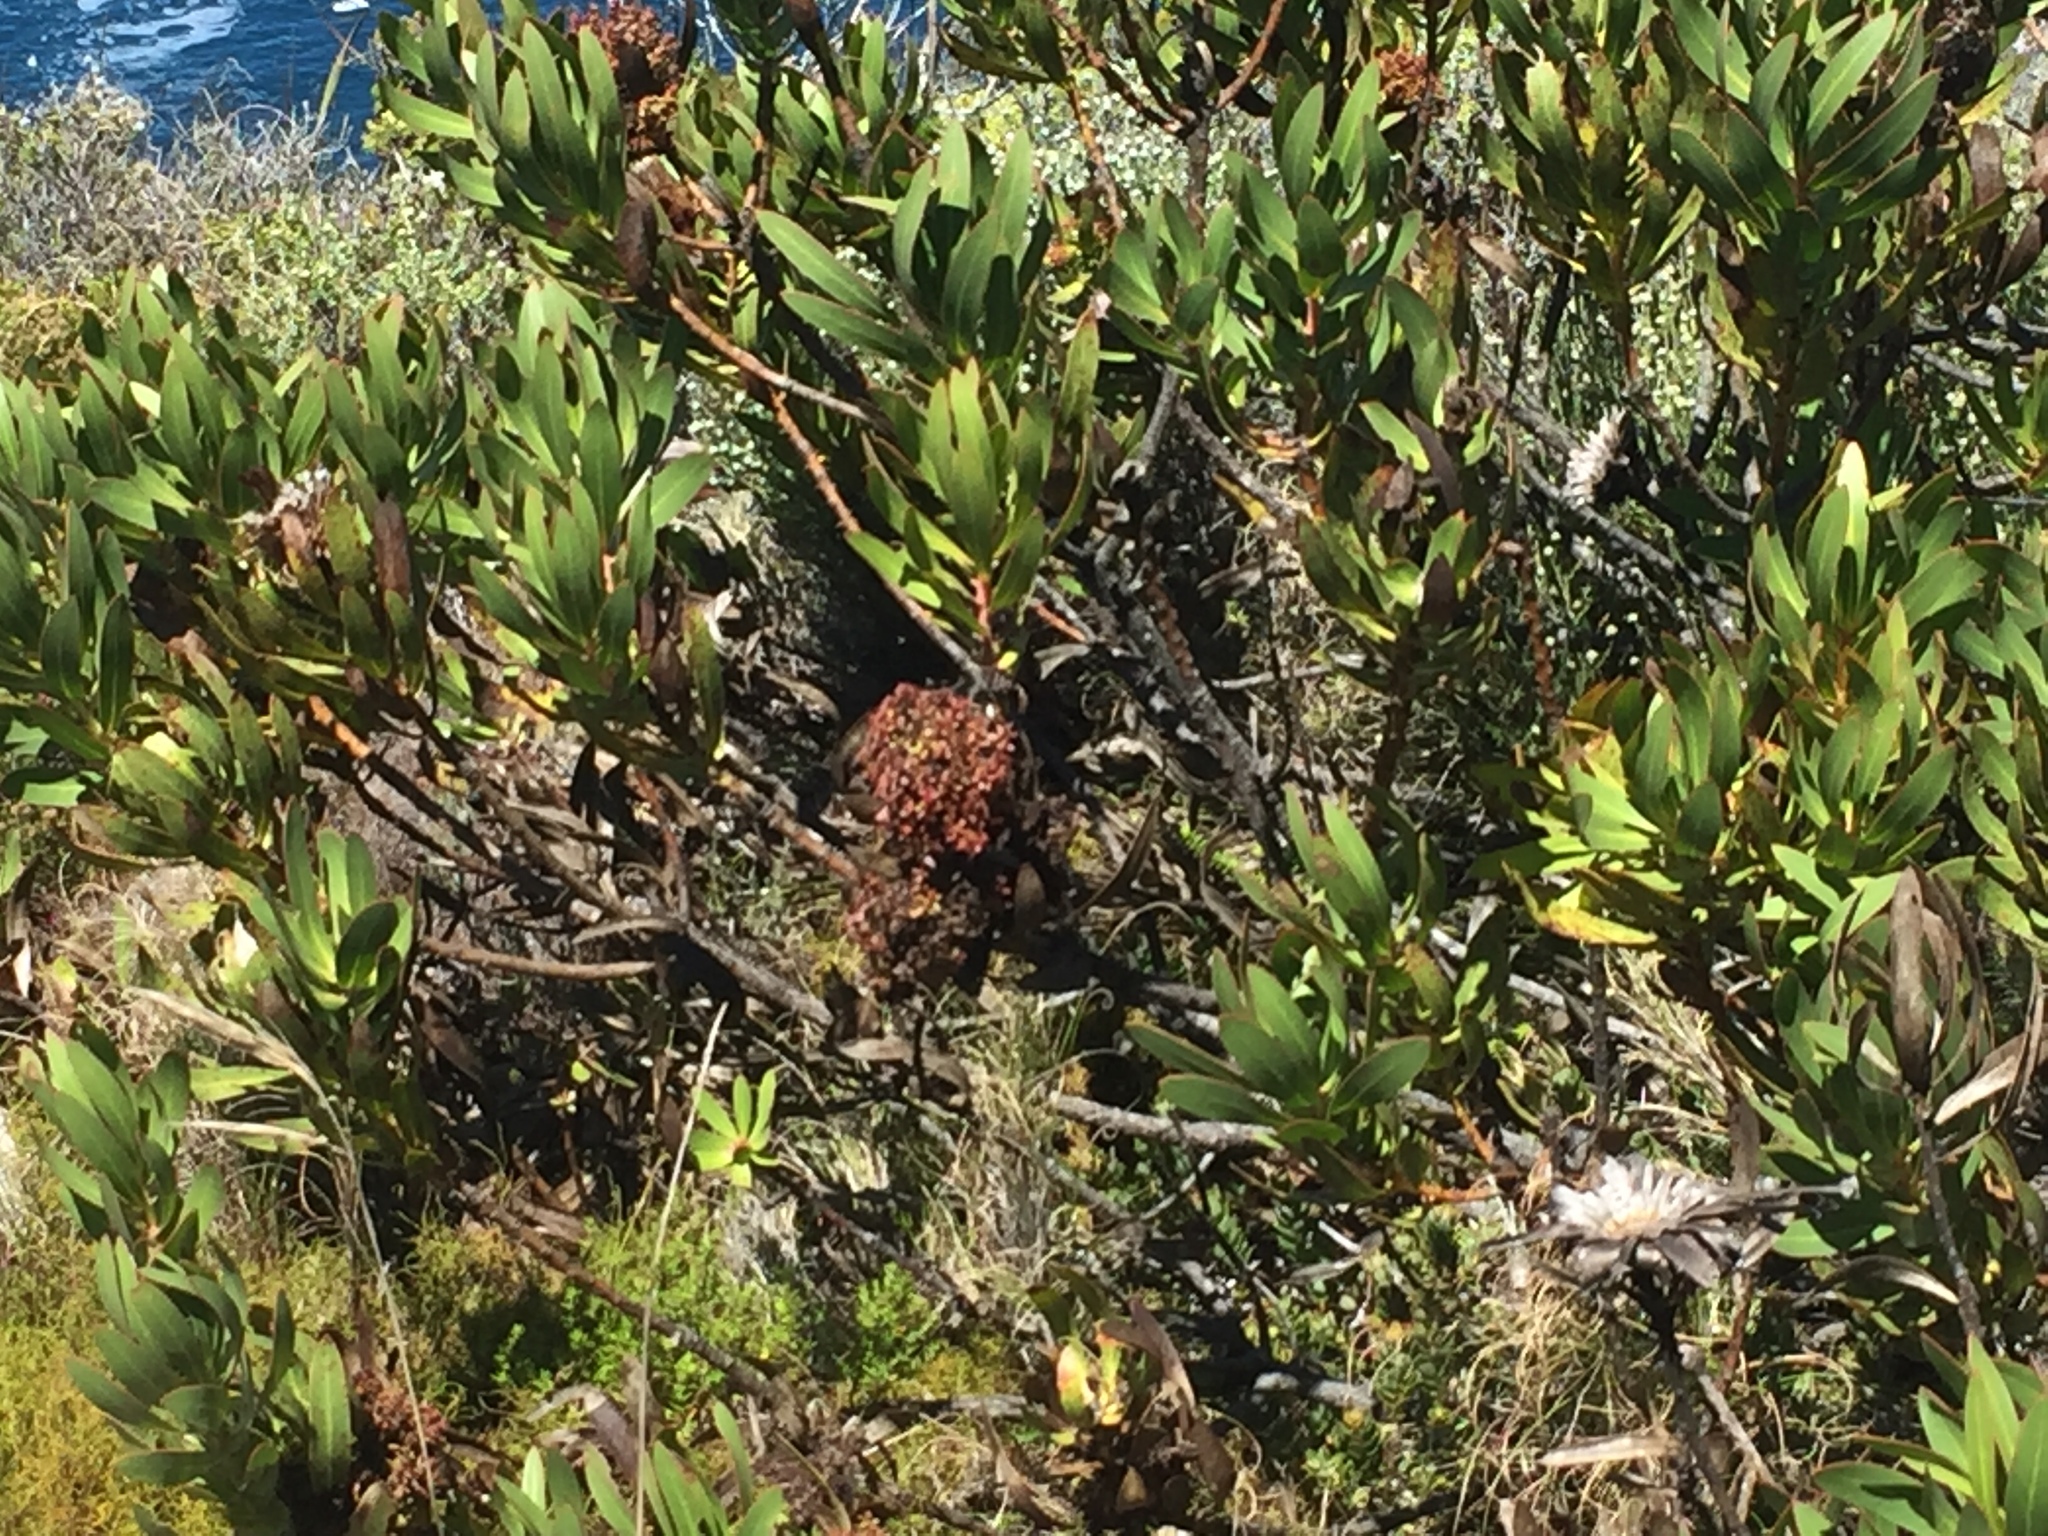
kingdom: Plantae
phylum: Tracheophyta
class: Magnoliopsida
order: Proteales
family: Proteaceae
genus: Protea
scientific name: Protea lepidocarpodendron
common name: Black-bearded protea
